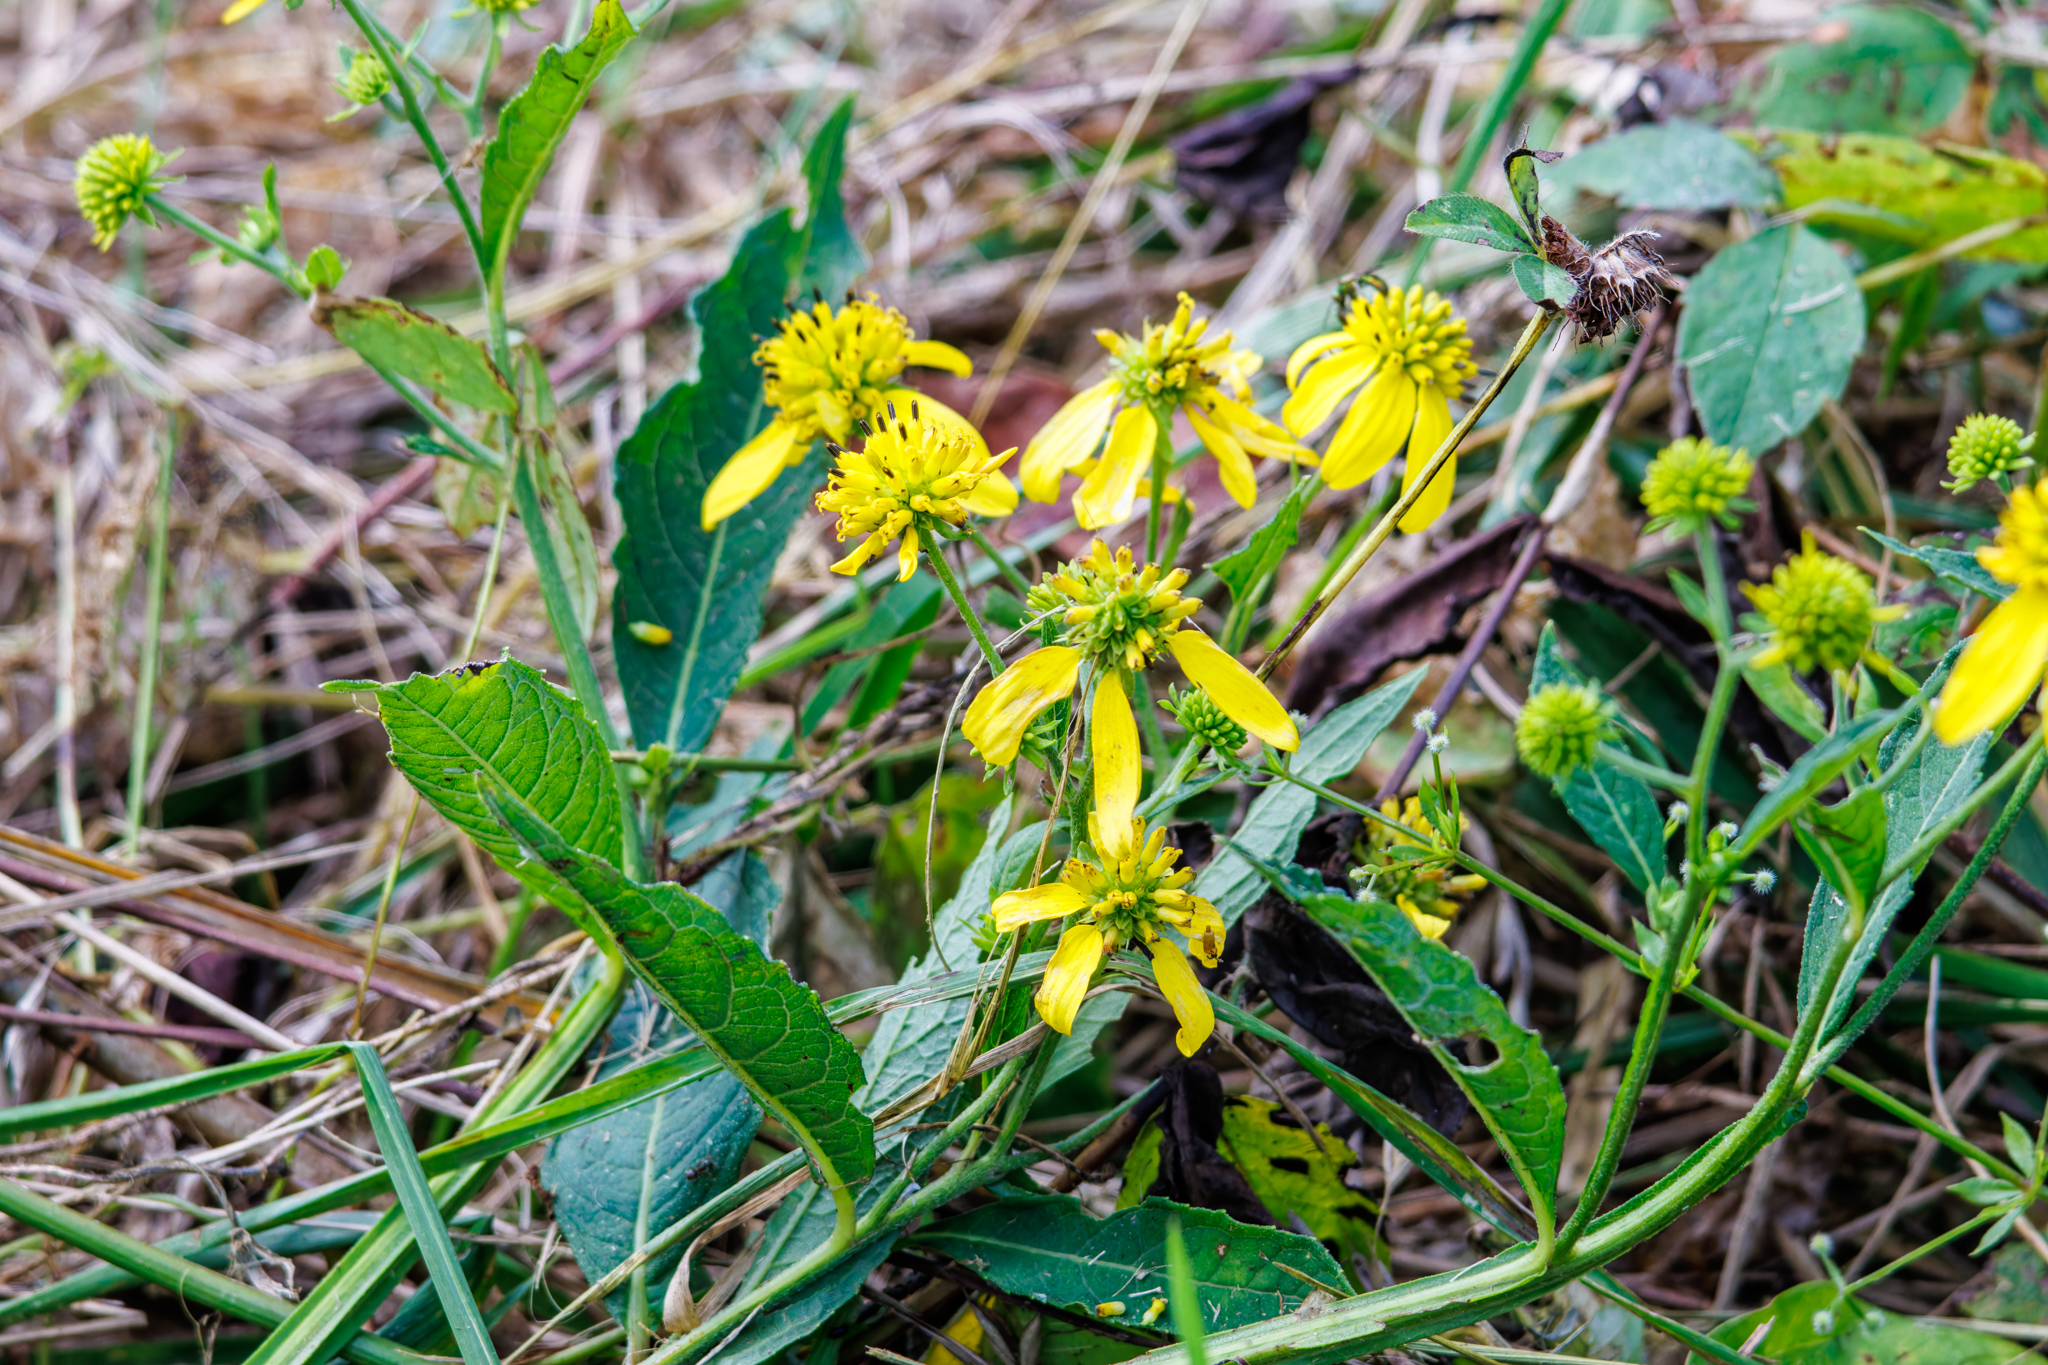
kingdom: Plantae
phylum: Tracheophyta
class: Magnoliopsida
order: Asterales
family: Asteraceae
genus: Verbesina
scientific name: Verbesina alternifolia
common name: Wingstem
